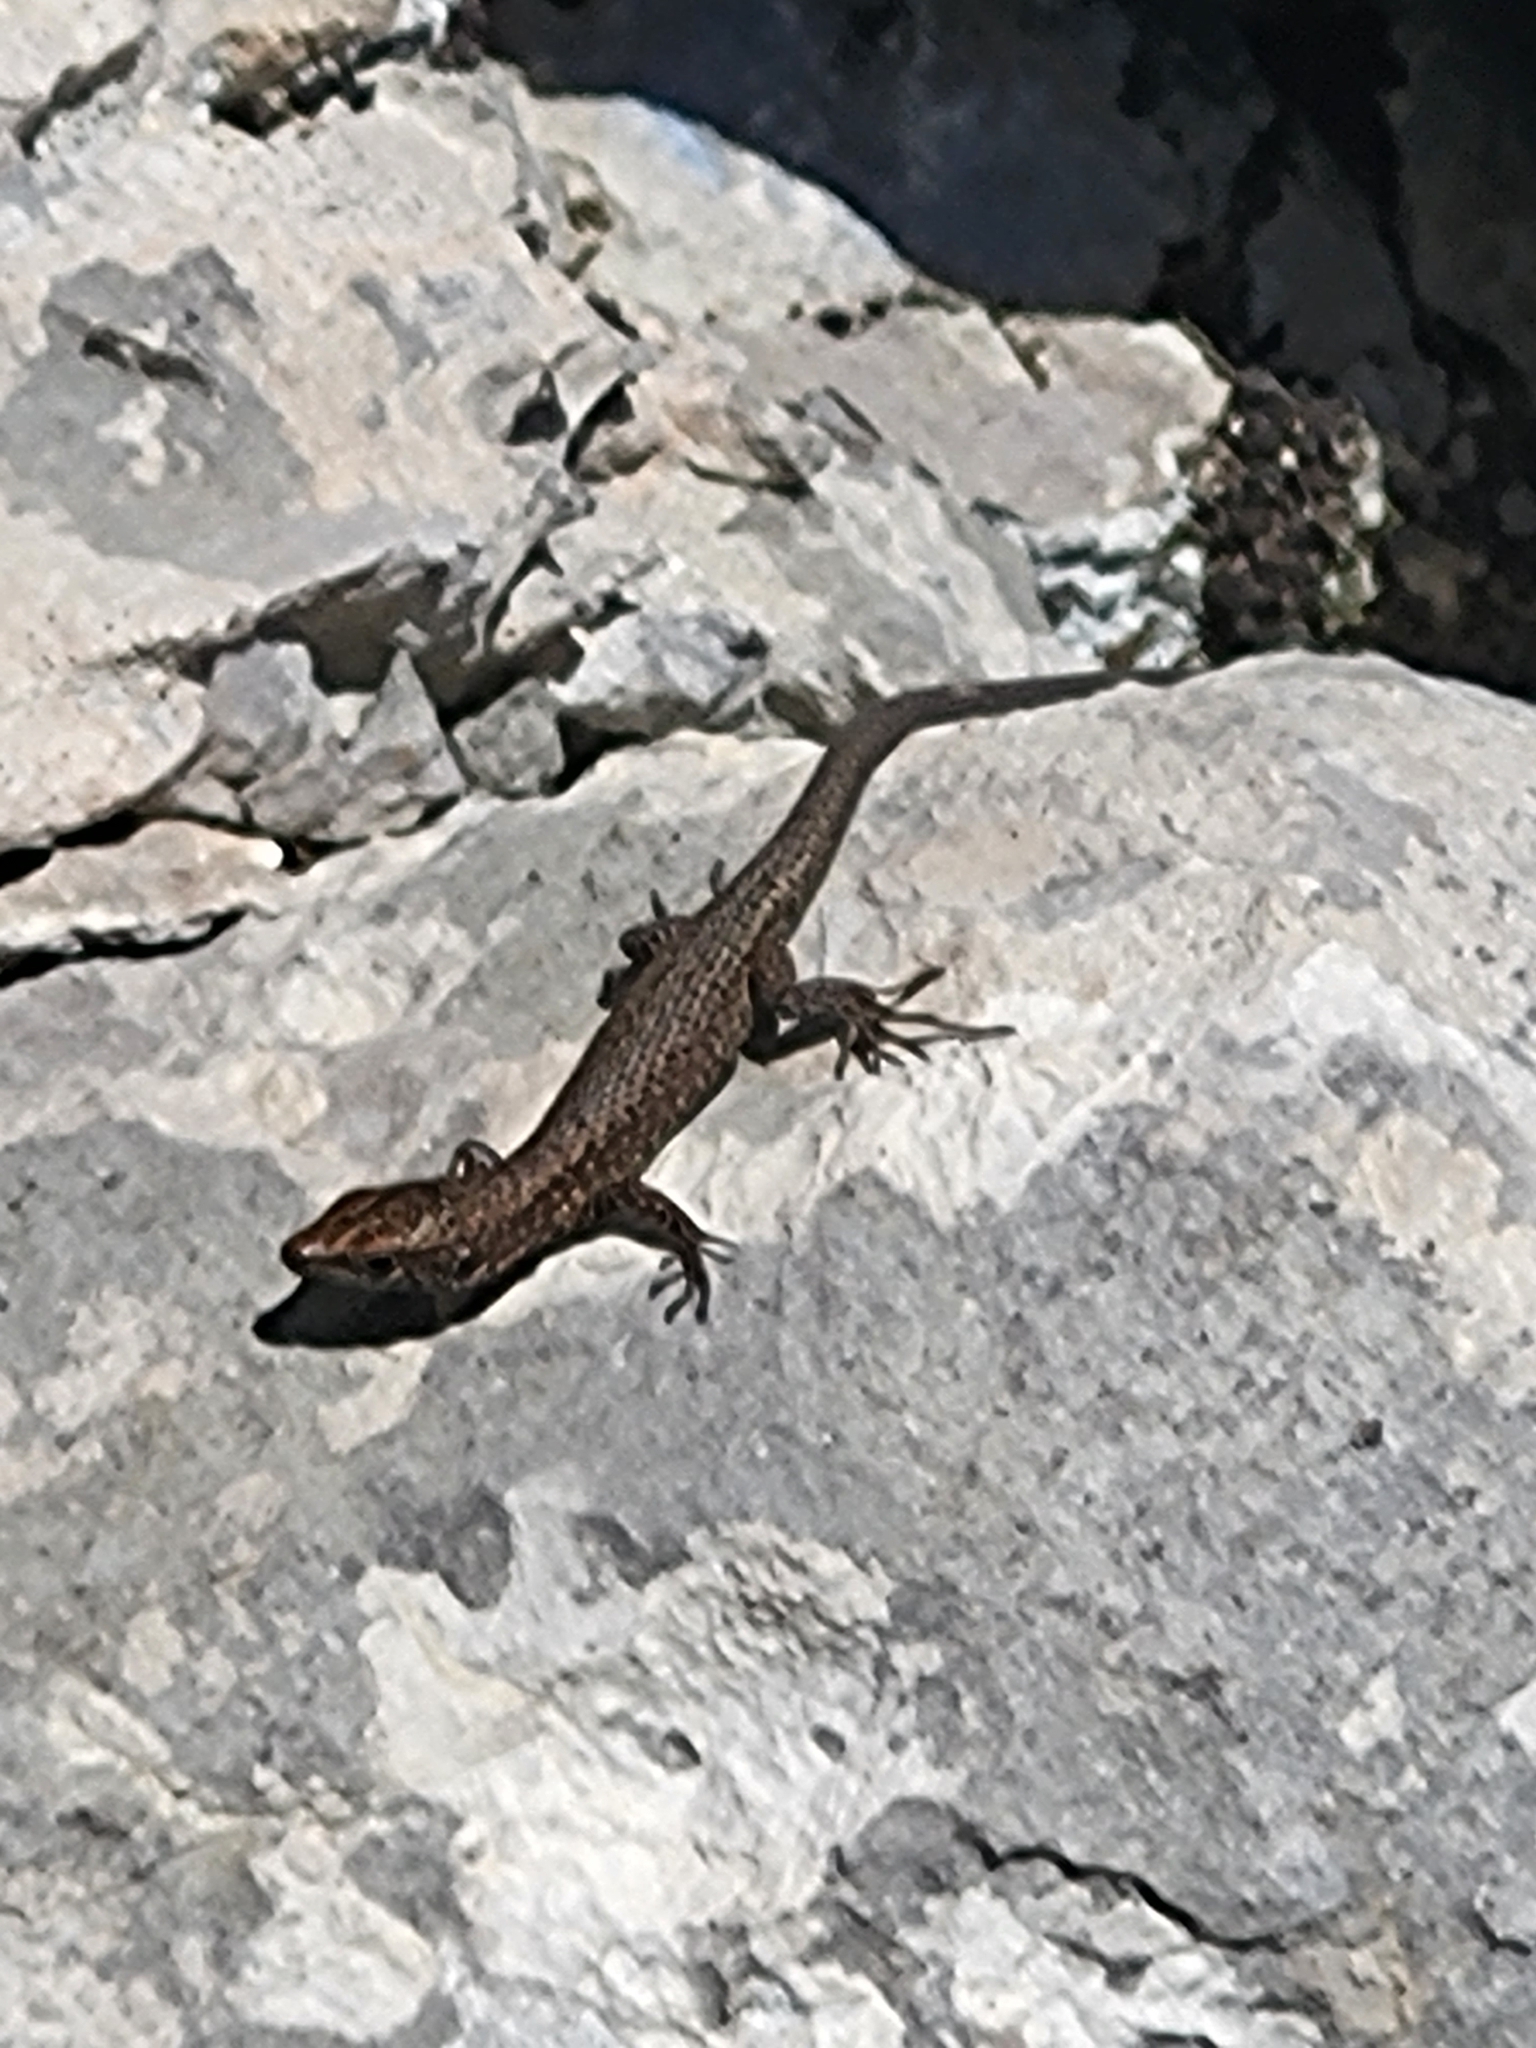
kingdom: Animalia
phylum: Chordata
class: Squamata
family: Lacertidae
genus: Algyroides
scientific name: Algyroides nigropunctatus
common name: Blue-throated keeled lizard
